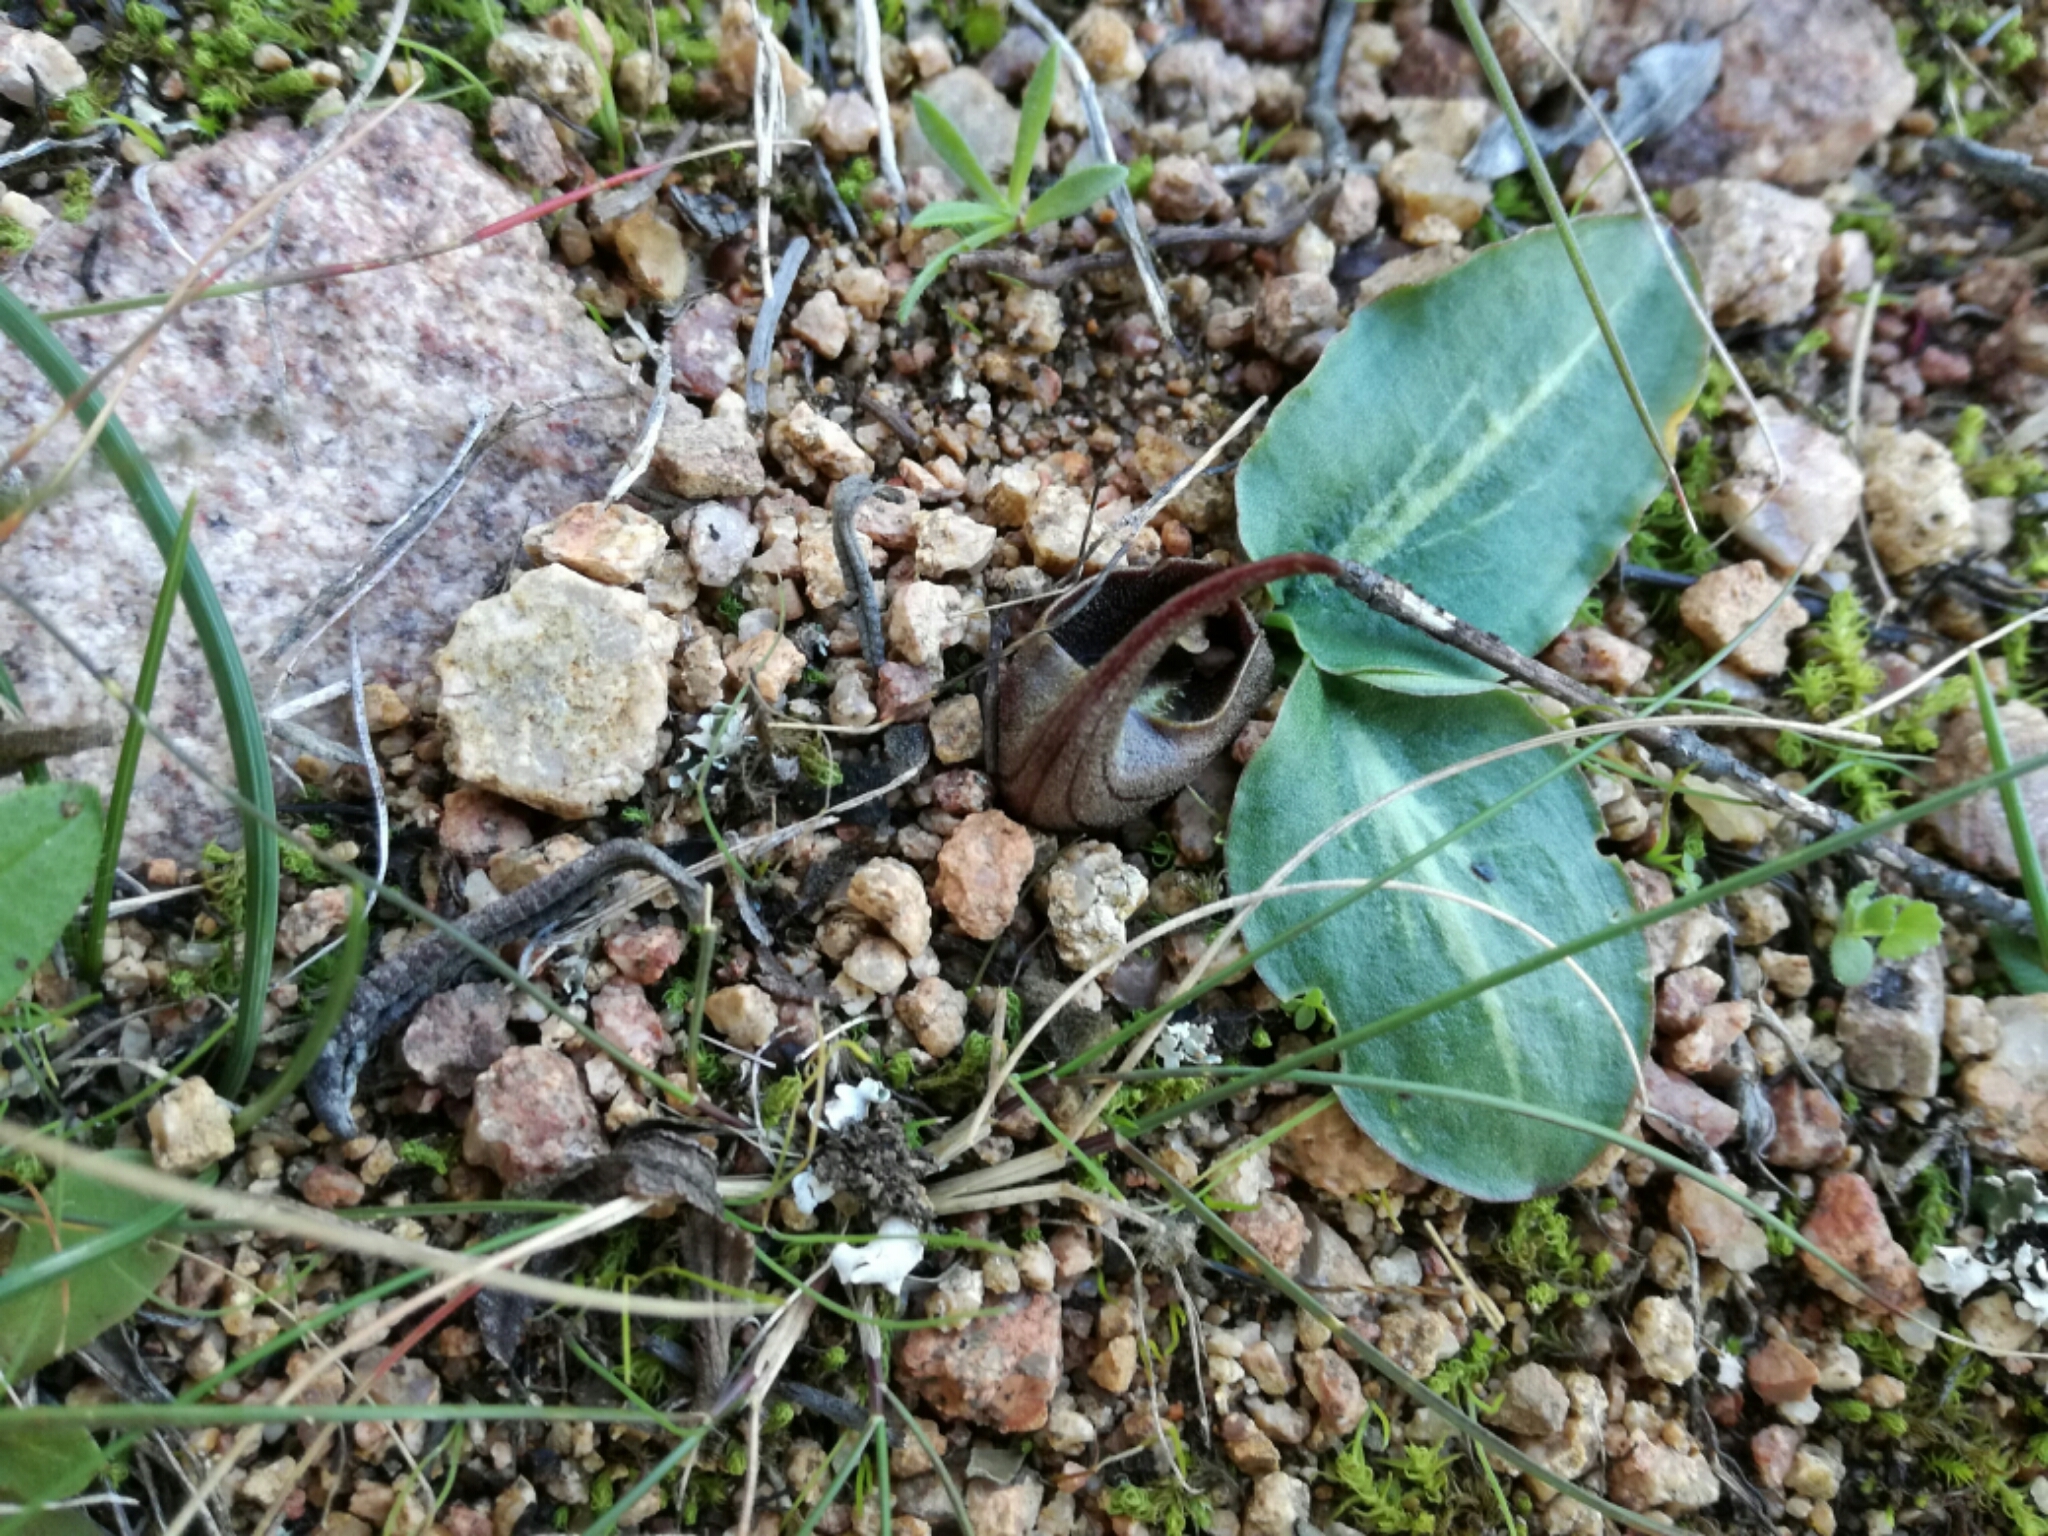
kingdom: Plantae
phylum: Tracheophyta
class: Liliopsida
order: Alismatales
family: Araceae
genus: Ambrosina
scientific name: Ambrosina bassii
